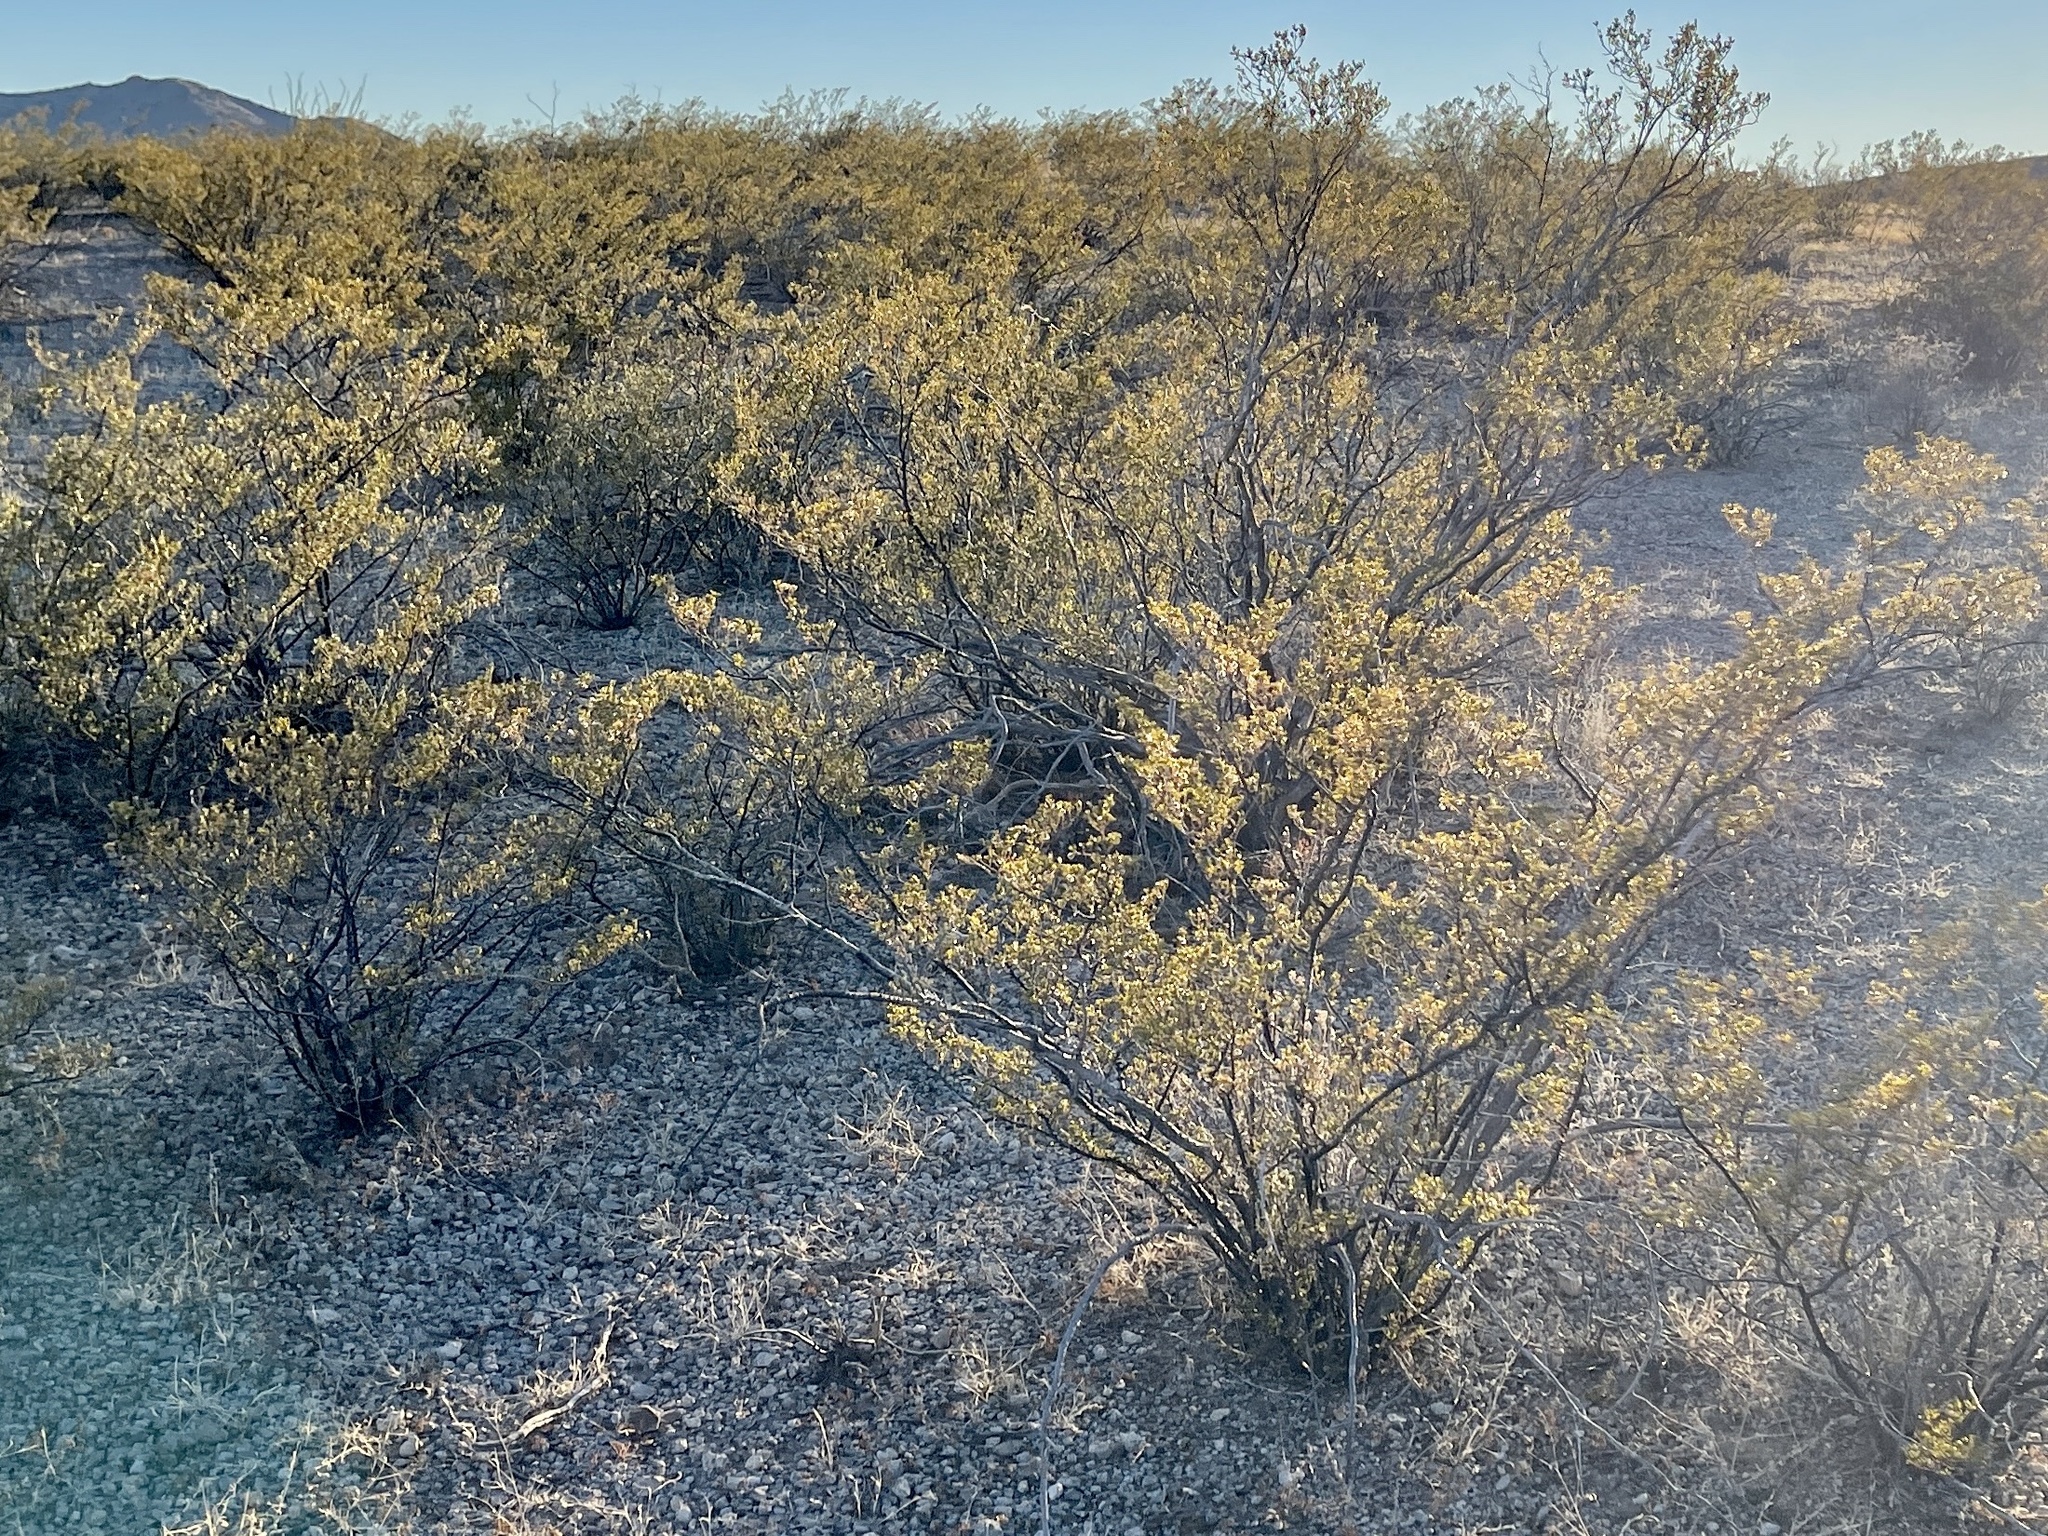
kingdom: Plantae
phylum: Tracheophyta
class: Magnoliopsida
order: Zygophyllales
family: Zygophyllaceae
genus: Larrea
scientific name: Larrea tridentata
